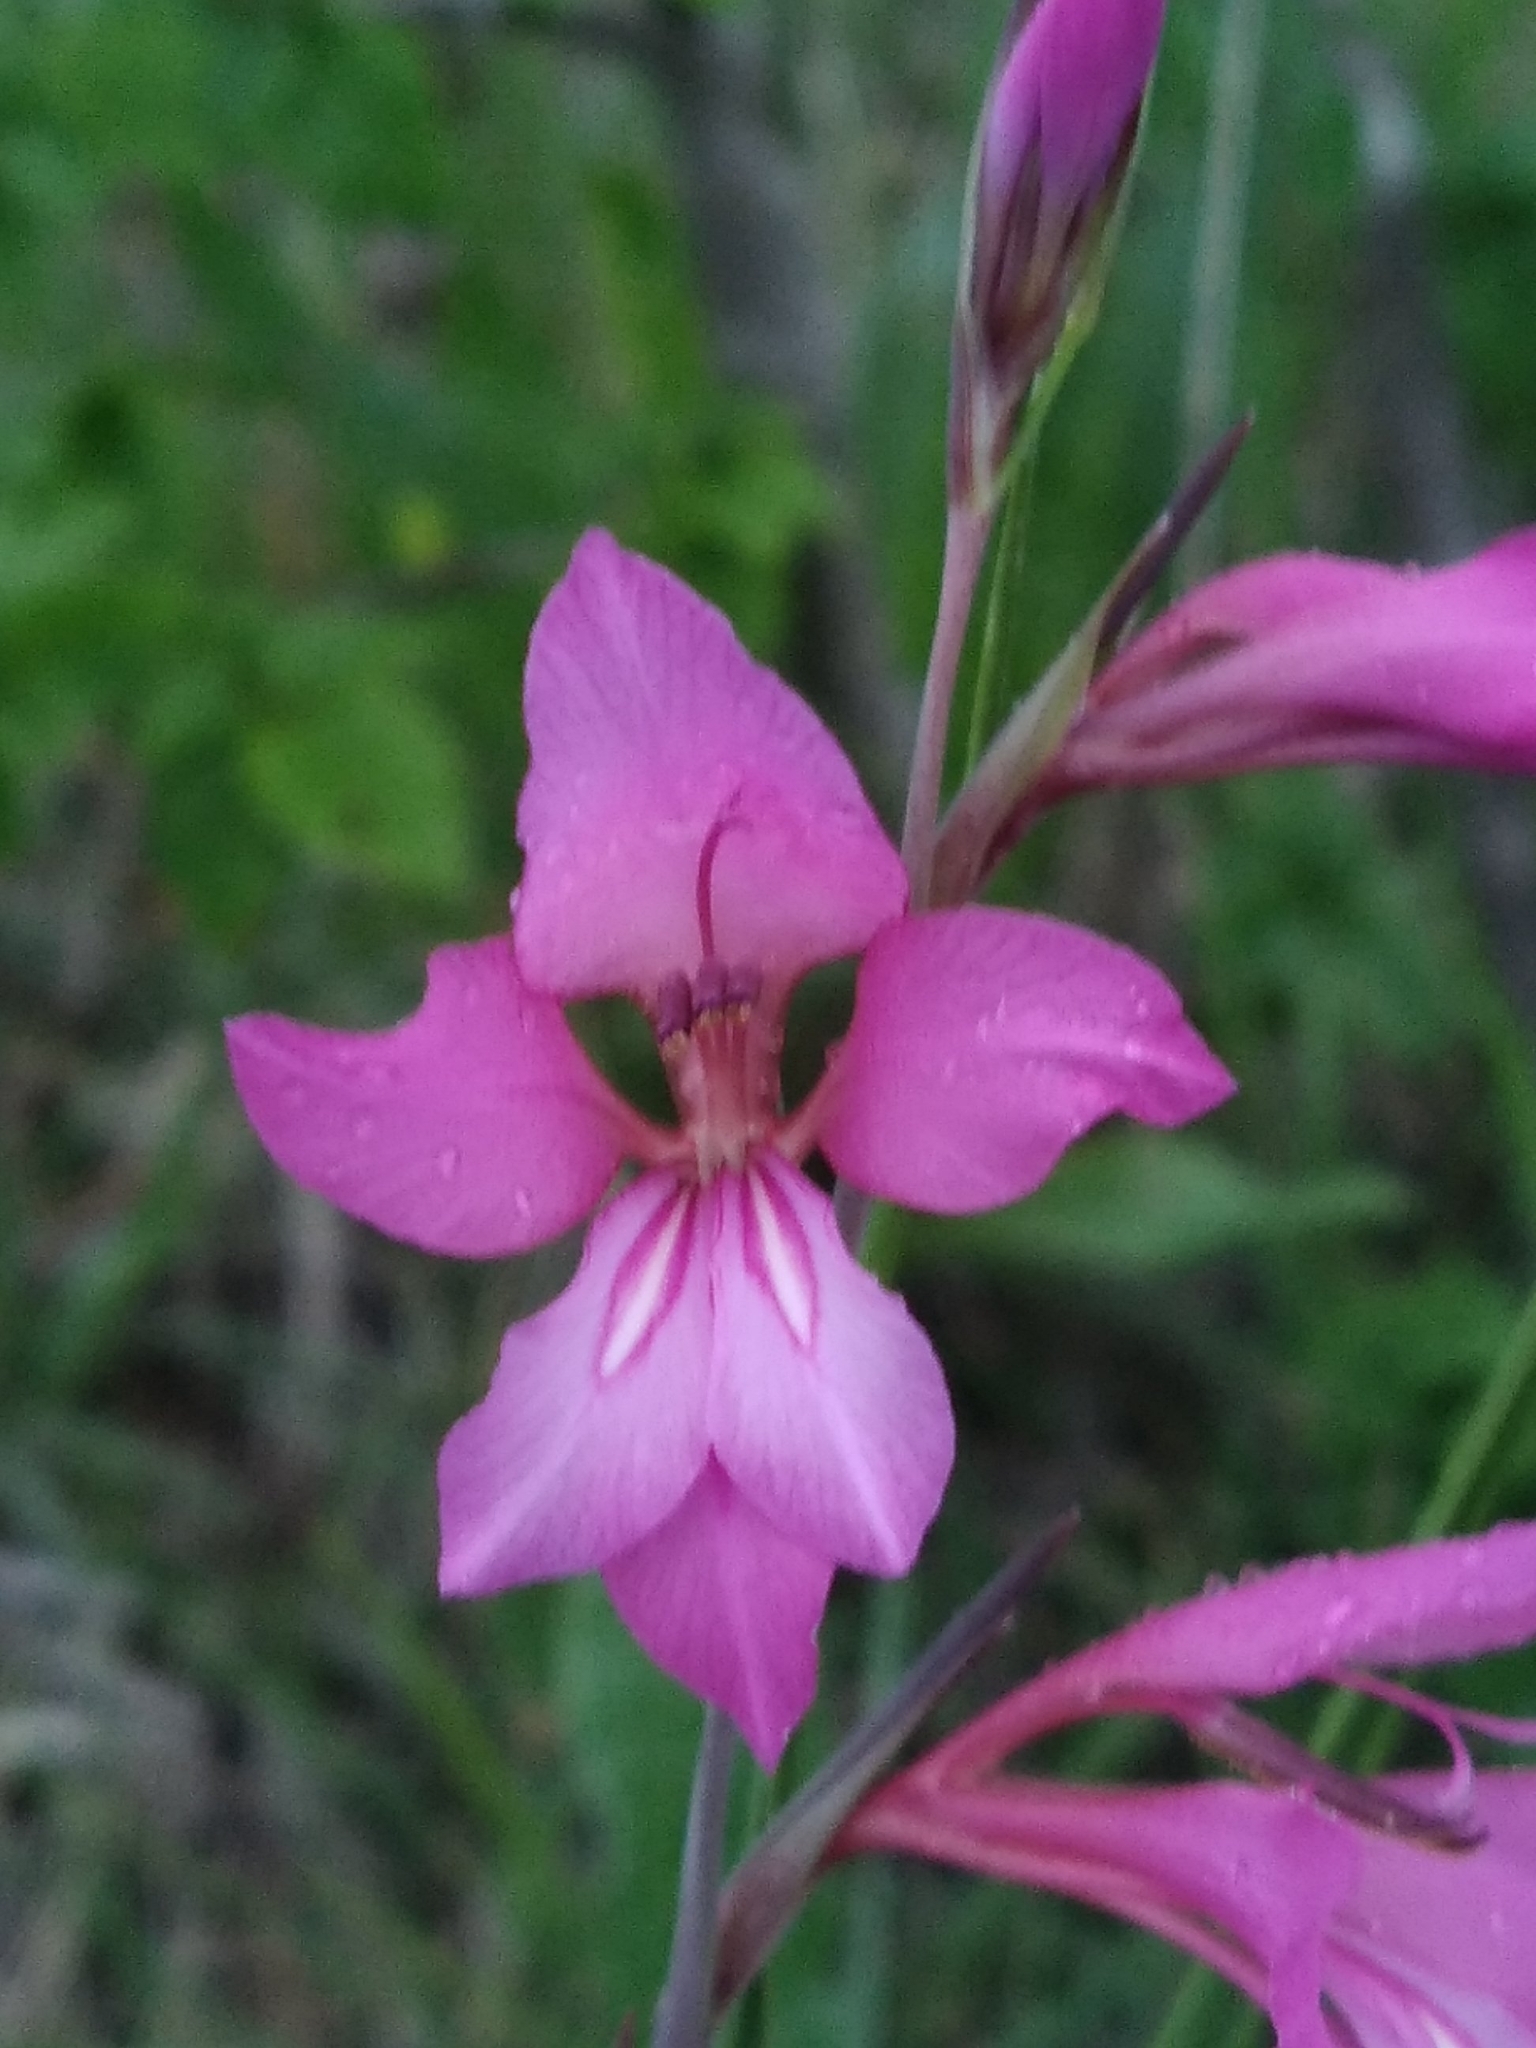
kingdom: Plantae
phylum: Tracheophyta
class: Liliopsida
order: Asparagales
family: Iridaceae
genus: Gladiolus
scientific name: Gladiolus dubius
